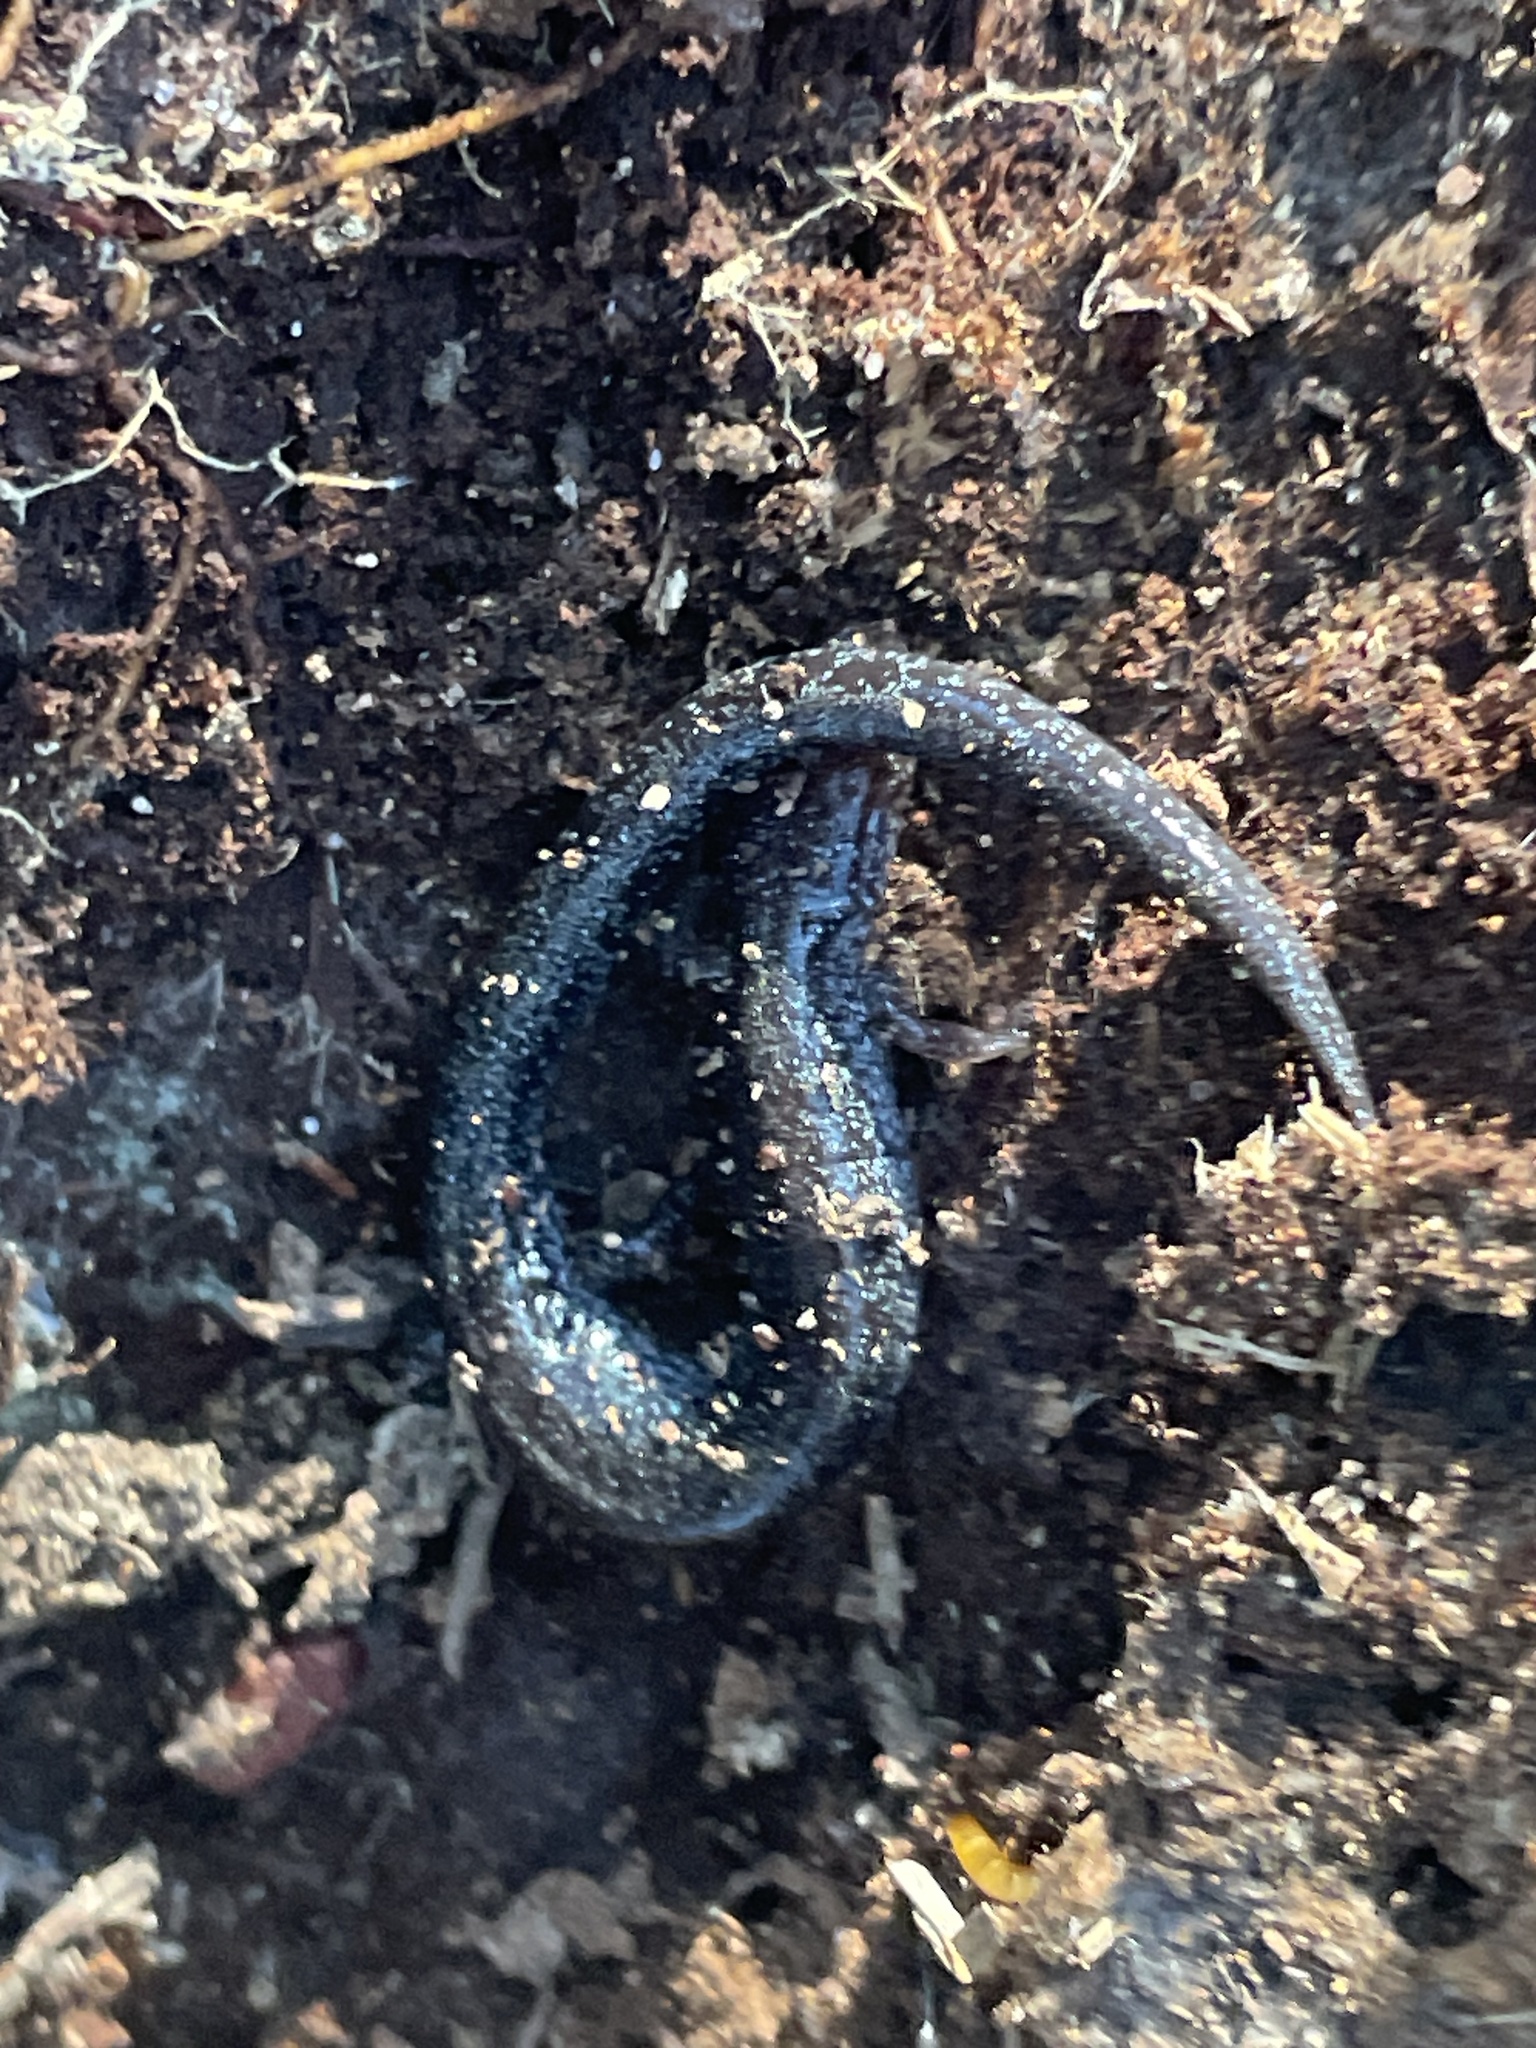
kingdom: Animalia
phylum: Chordata
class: Amphibia
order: Caudata
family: Plethodontidae
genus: Plethodon
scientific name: Plethodon cinereus
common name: Redback salamander
